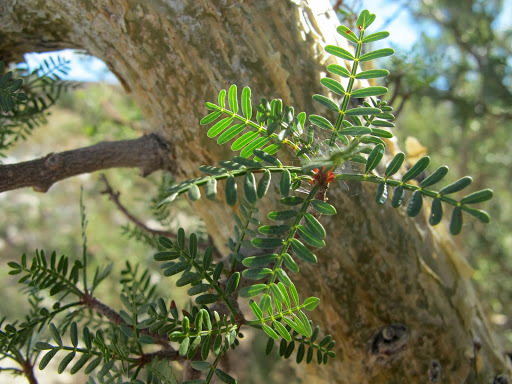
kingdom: Plantae
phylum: Tracheophyta
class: Magnoliopsida
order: Sapindales
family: Burseraceae
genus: Bursera
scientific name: Bursera microphylla
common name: Elephant tree
